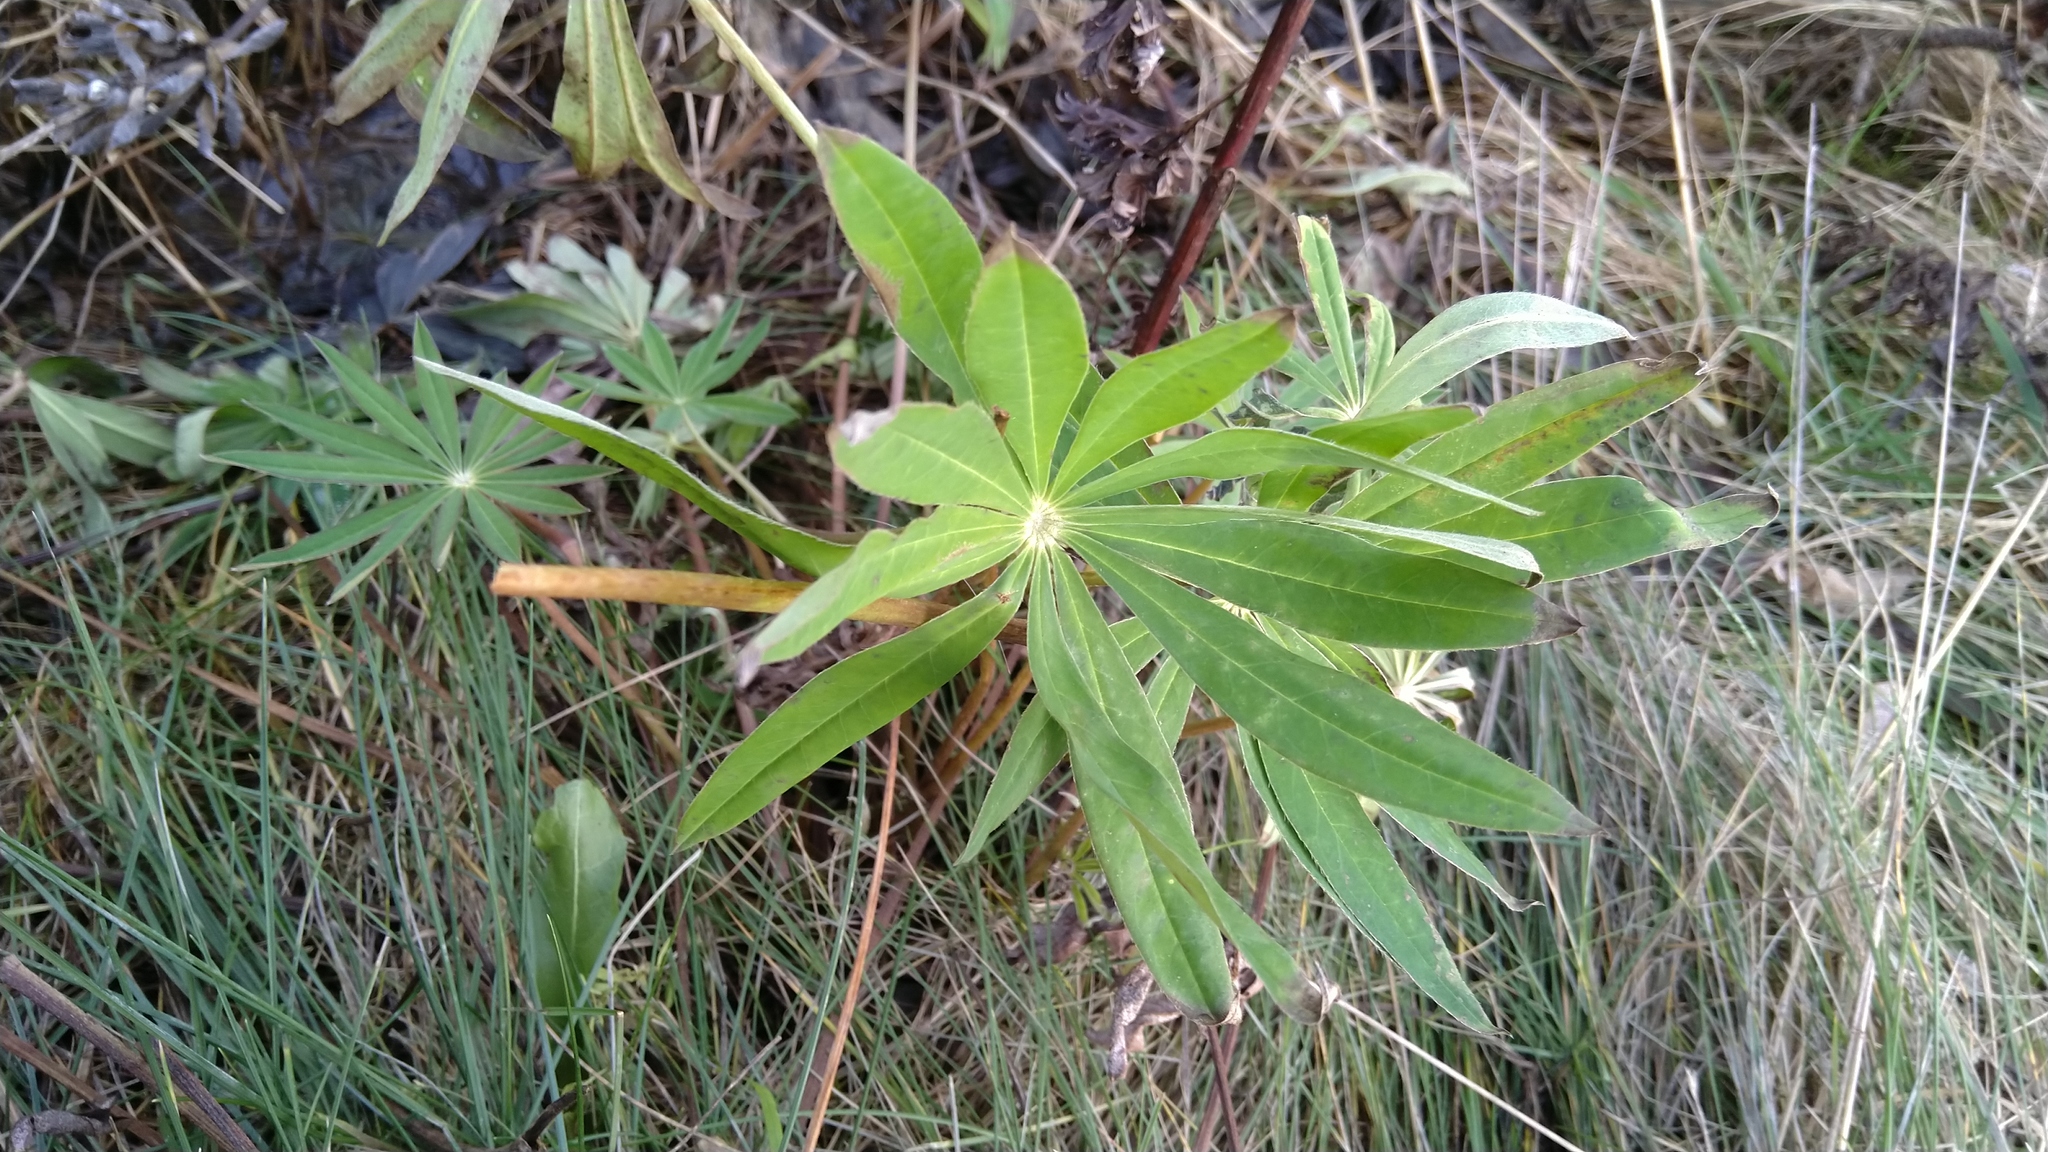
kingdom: Plantae
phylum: Tracheophyta
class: Magnoliopsida
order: Fabales
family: Fabaceae
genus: Lupinus
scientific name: Lupinus polyphyllus
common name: Garden lupin
